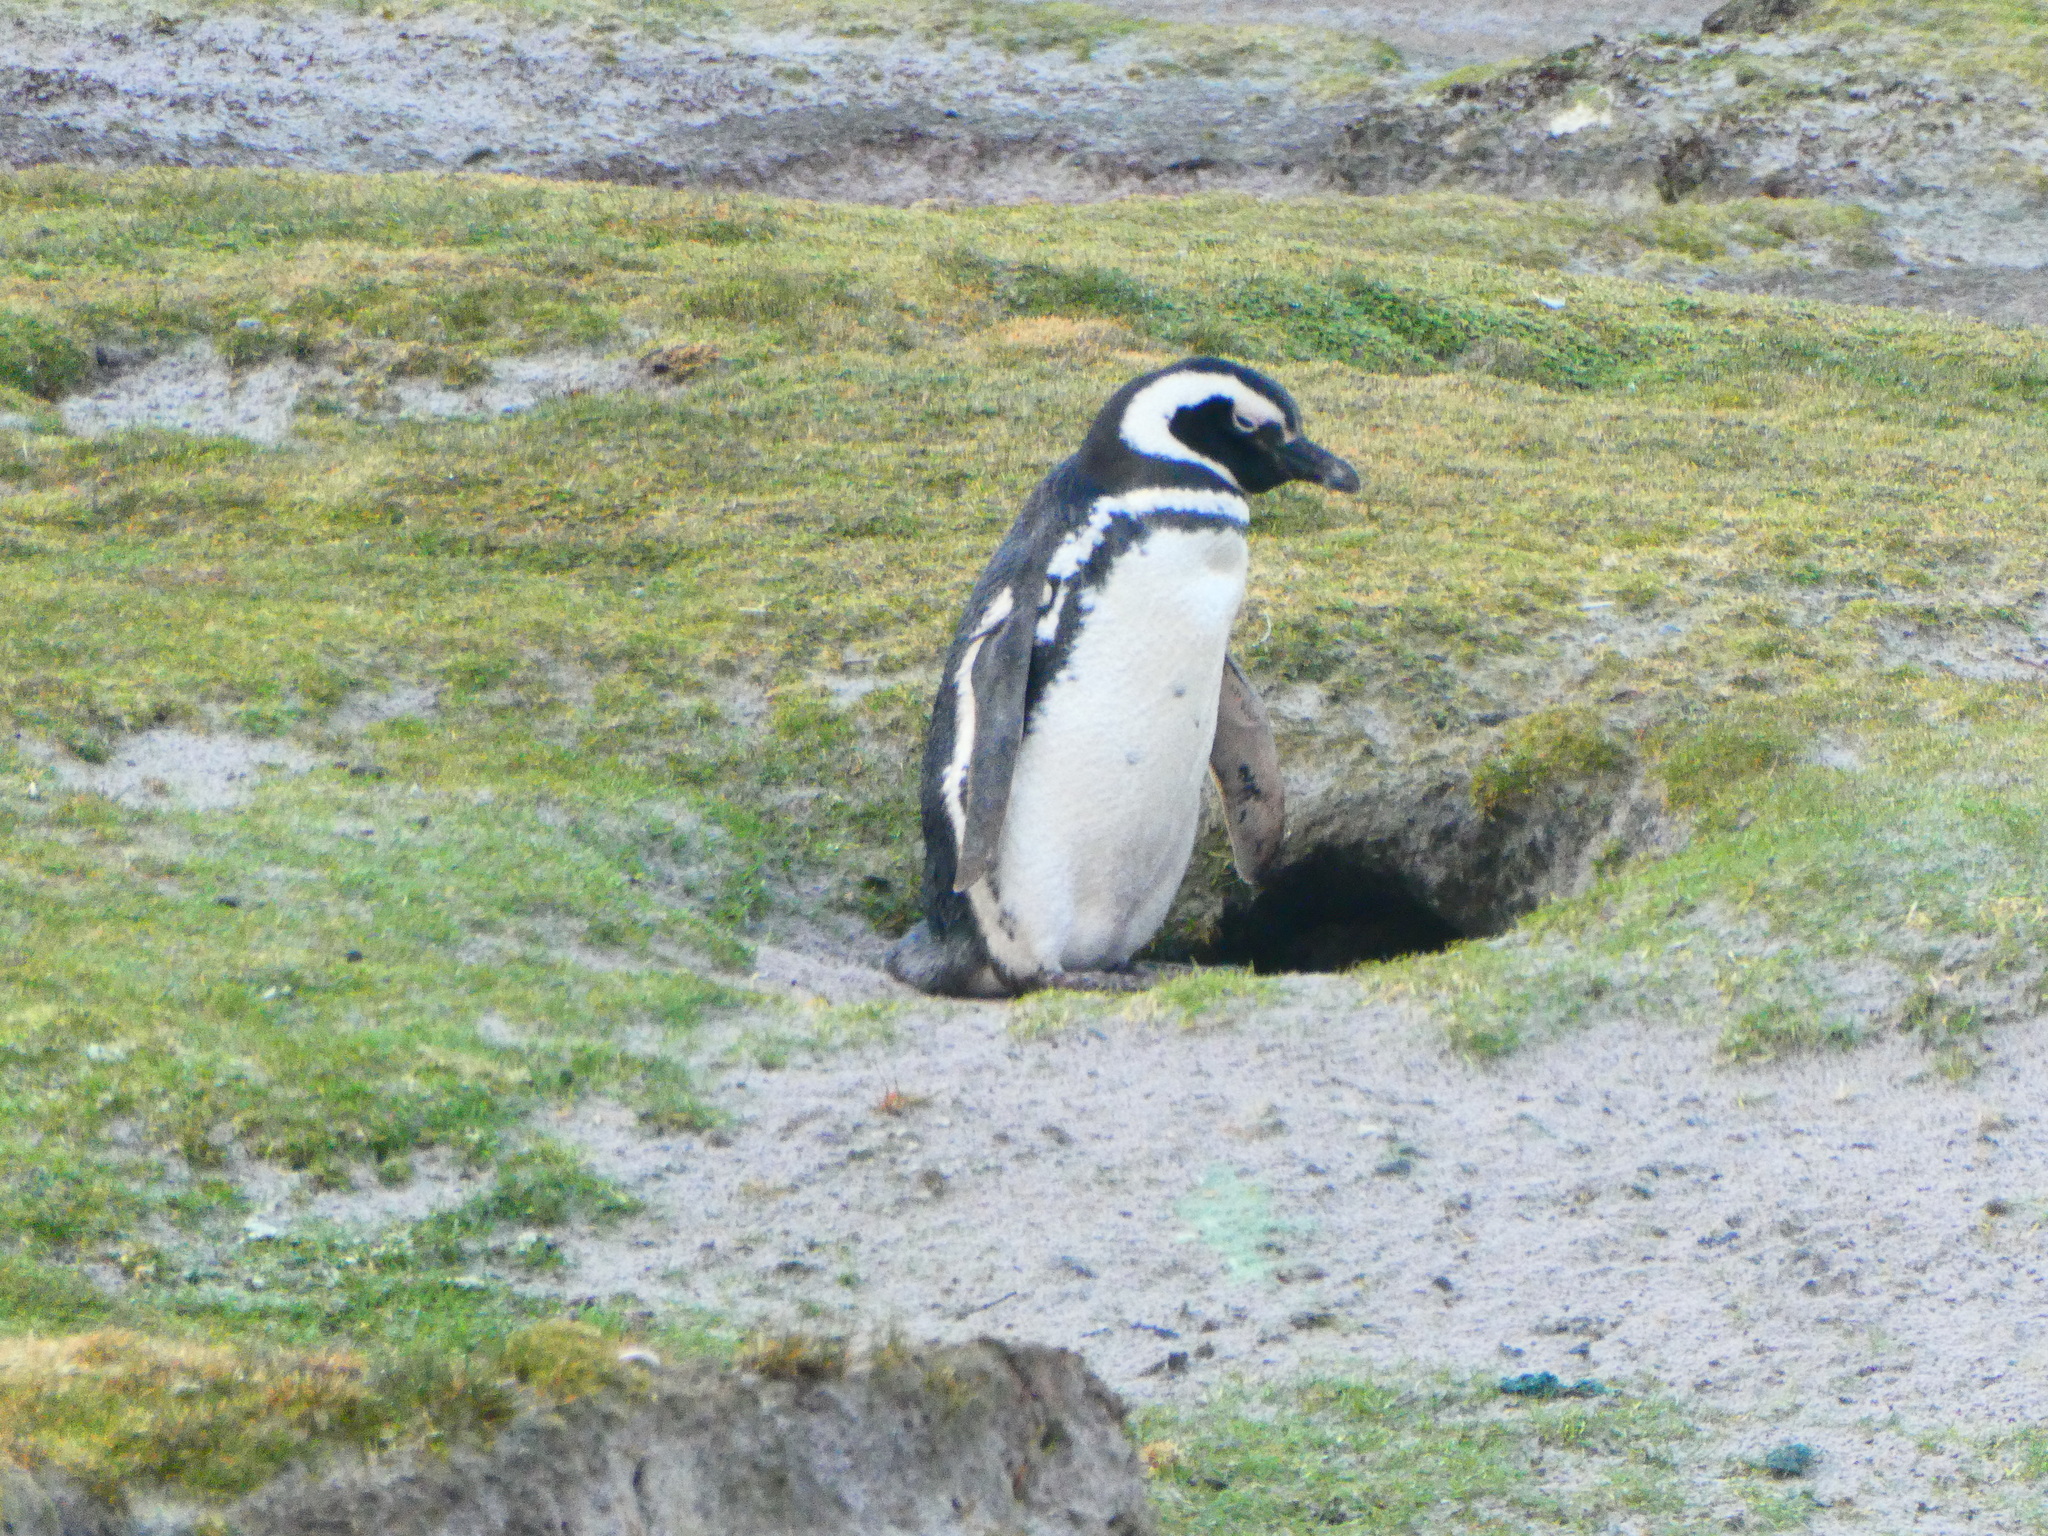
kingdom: Animalia
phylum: Chordata
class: Aves
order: Sphenisciformes
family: Spheniscidae
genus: Spheniscus
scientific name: Spheniscus magellanicus
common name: Magellanic penguin
